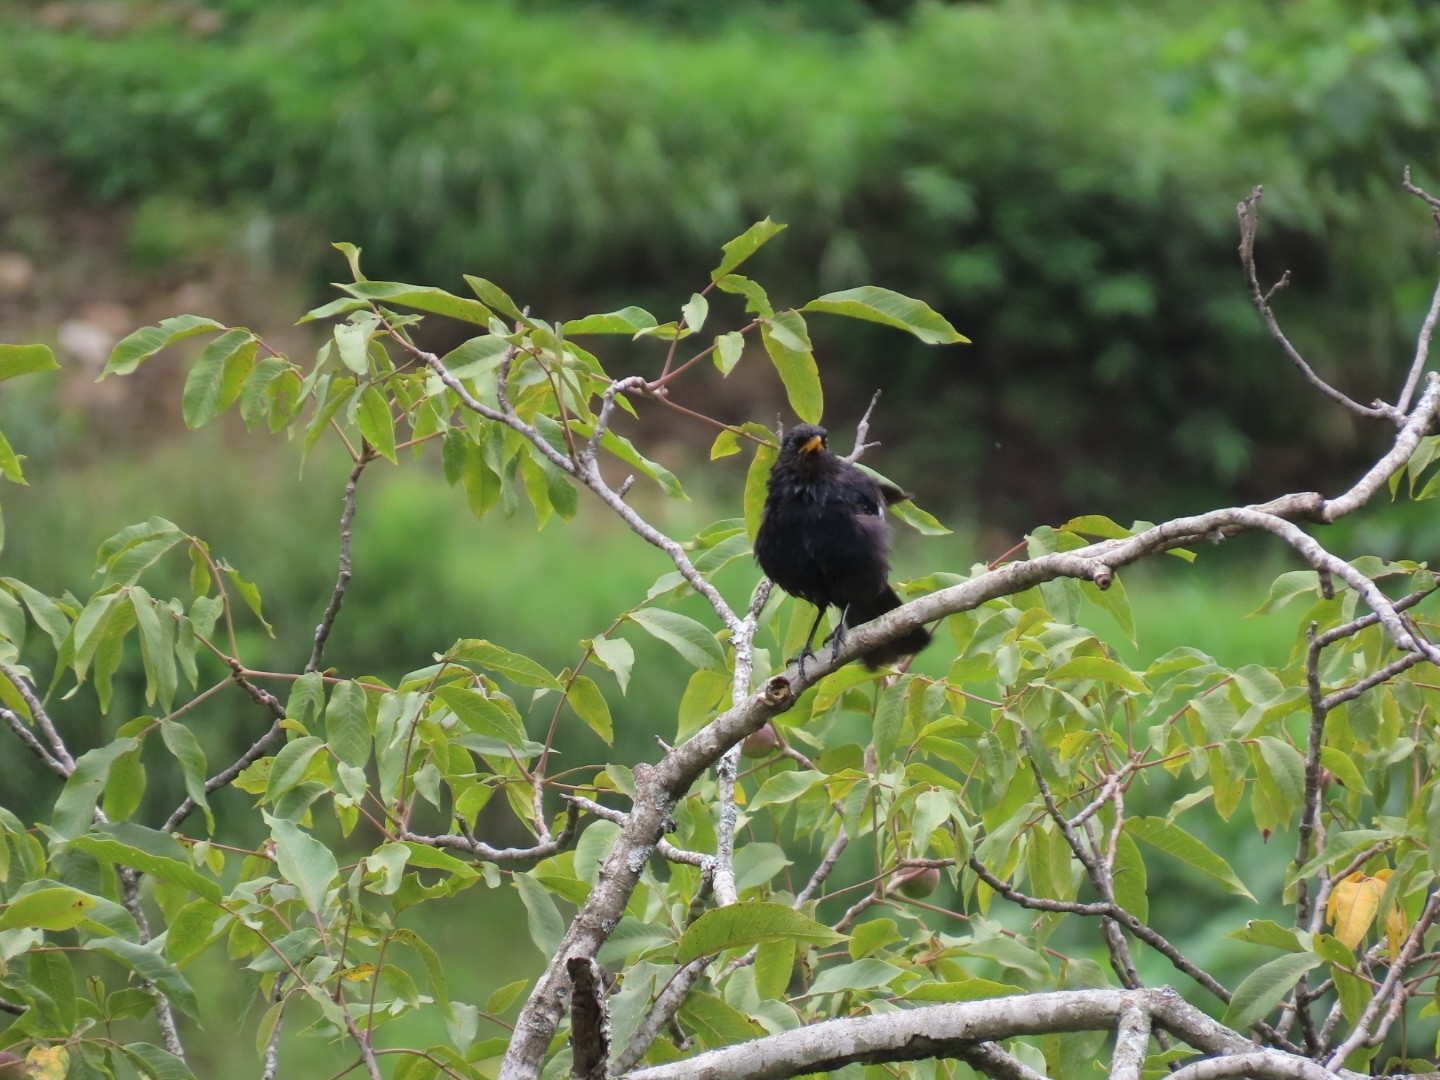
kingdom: Animalia
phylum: Chordata
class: Aves
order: Passeriformes
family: Turdidae
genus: Turdus
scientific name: Turdus boulboul
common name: Grey-winged blackbird
